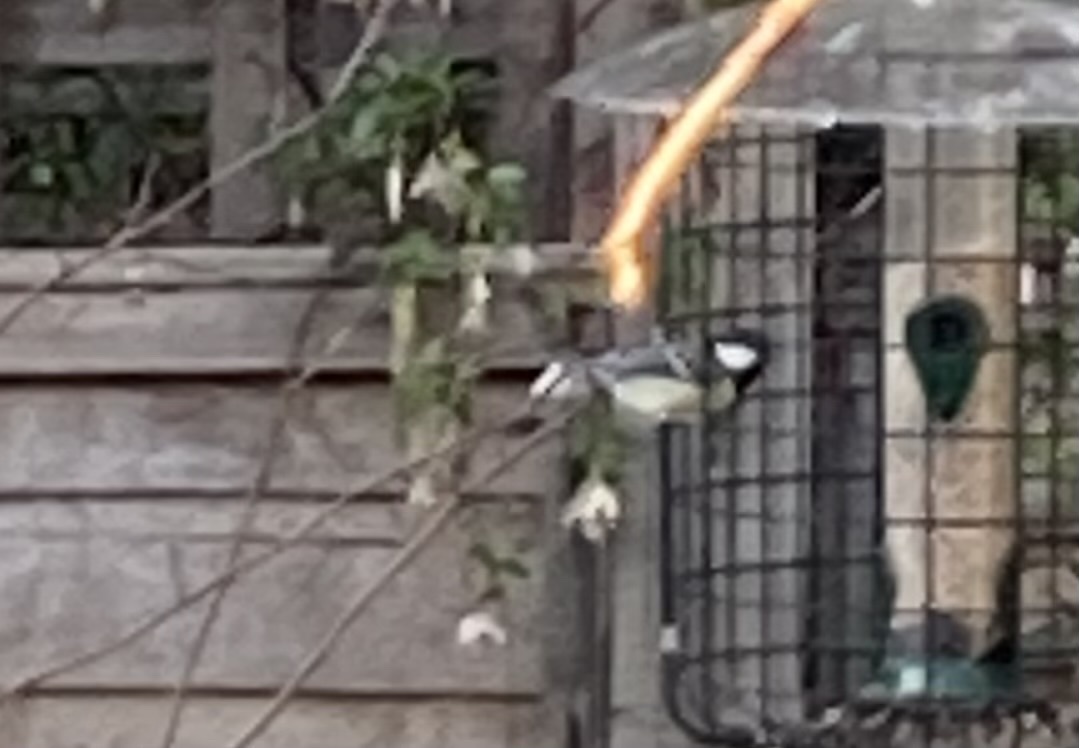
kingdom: Animalia
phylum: Chordata
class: Aves
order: Passeriformes
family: Paridae
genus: Parus
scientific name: Parus major
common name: Great tit
